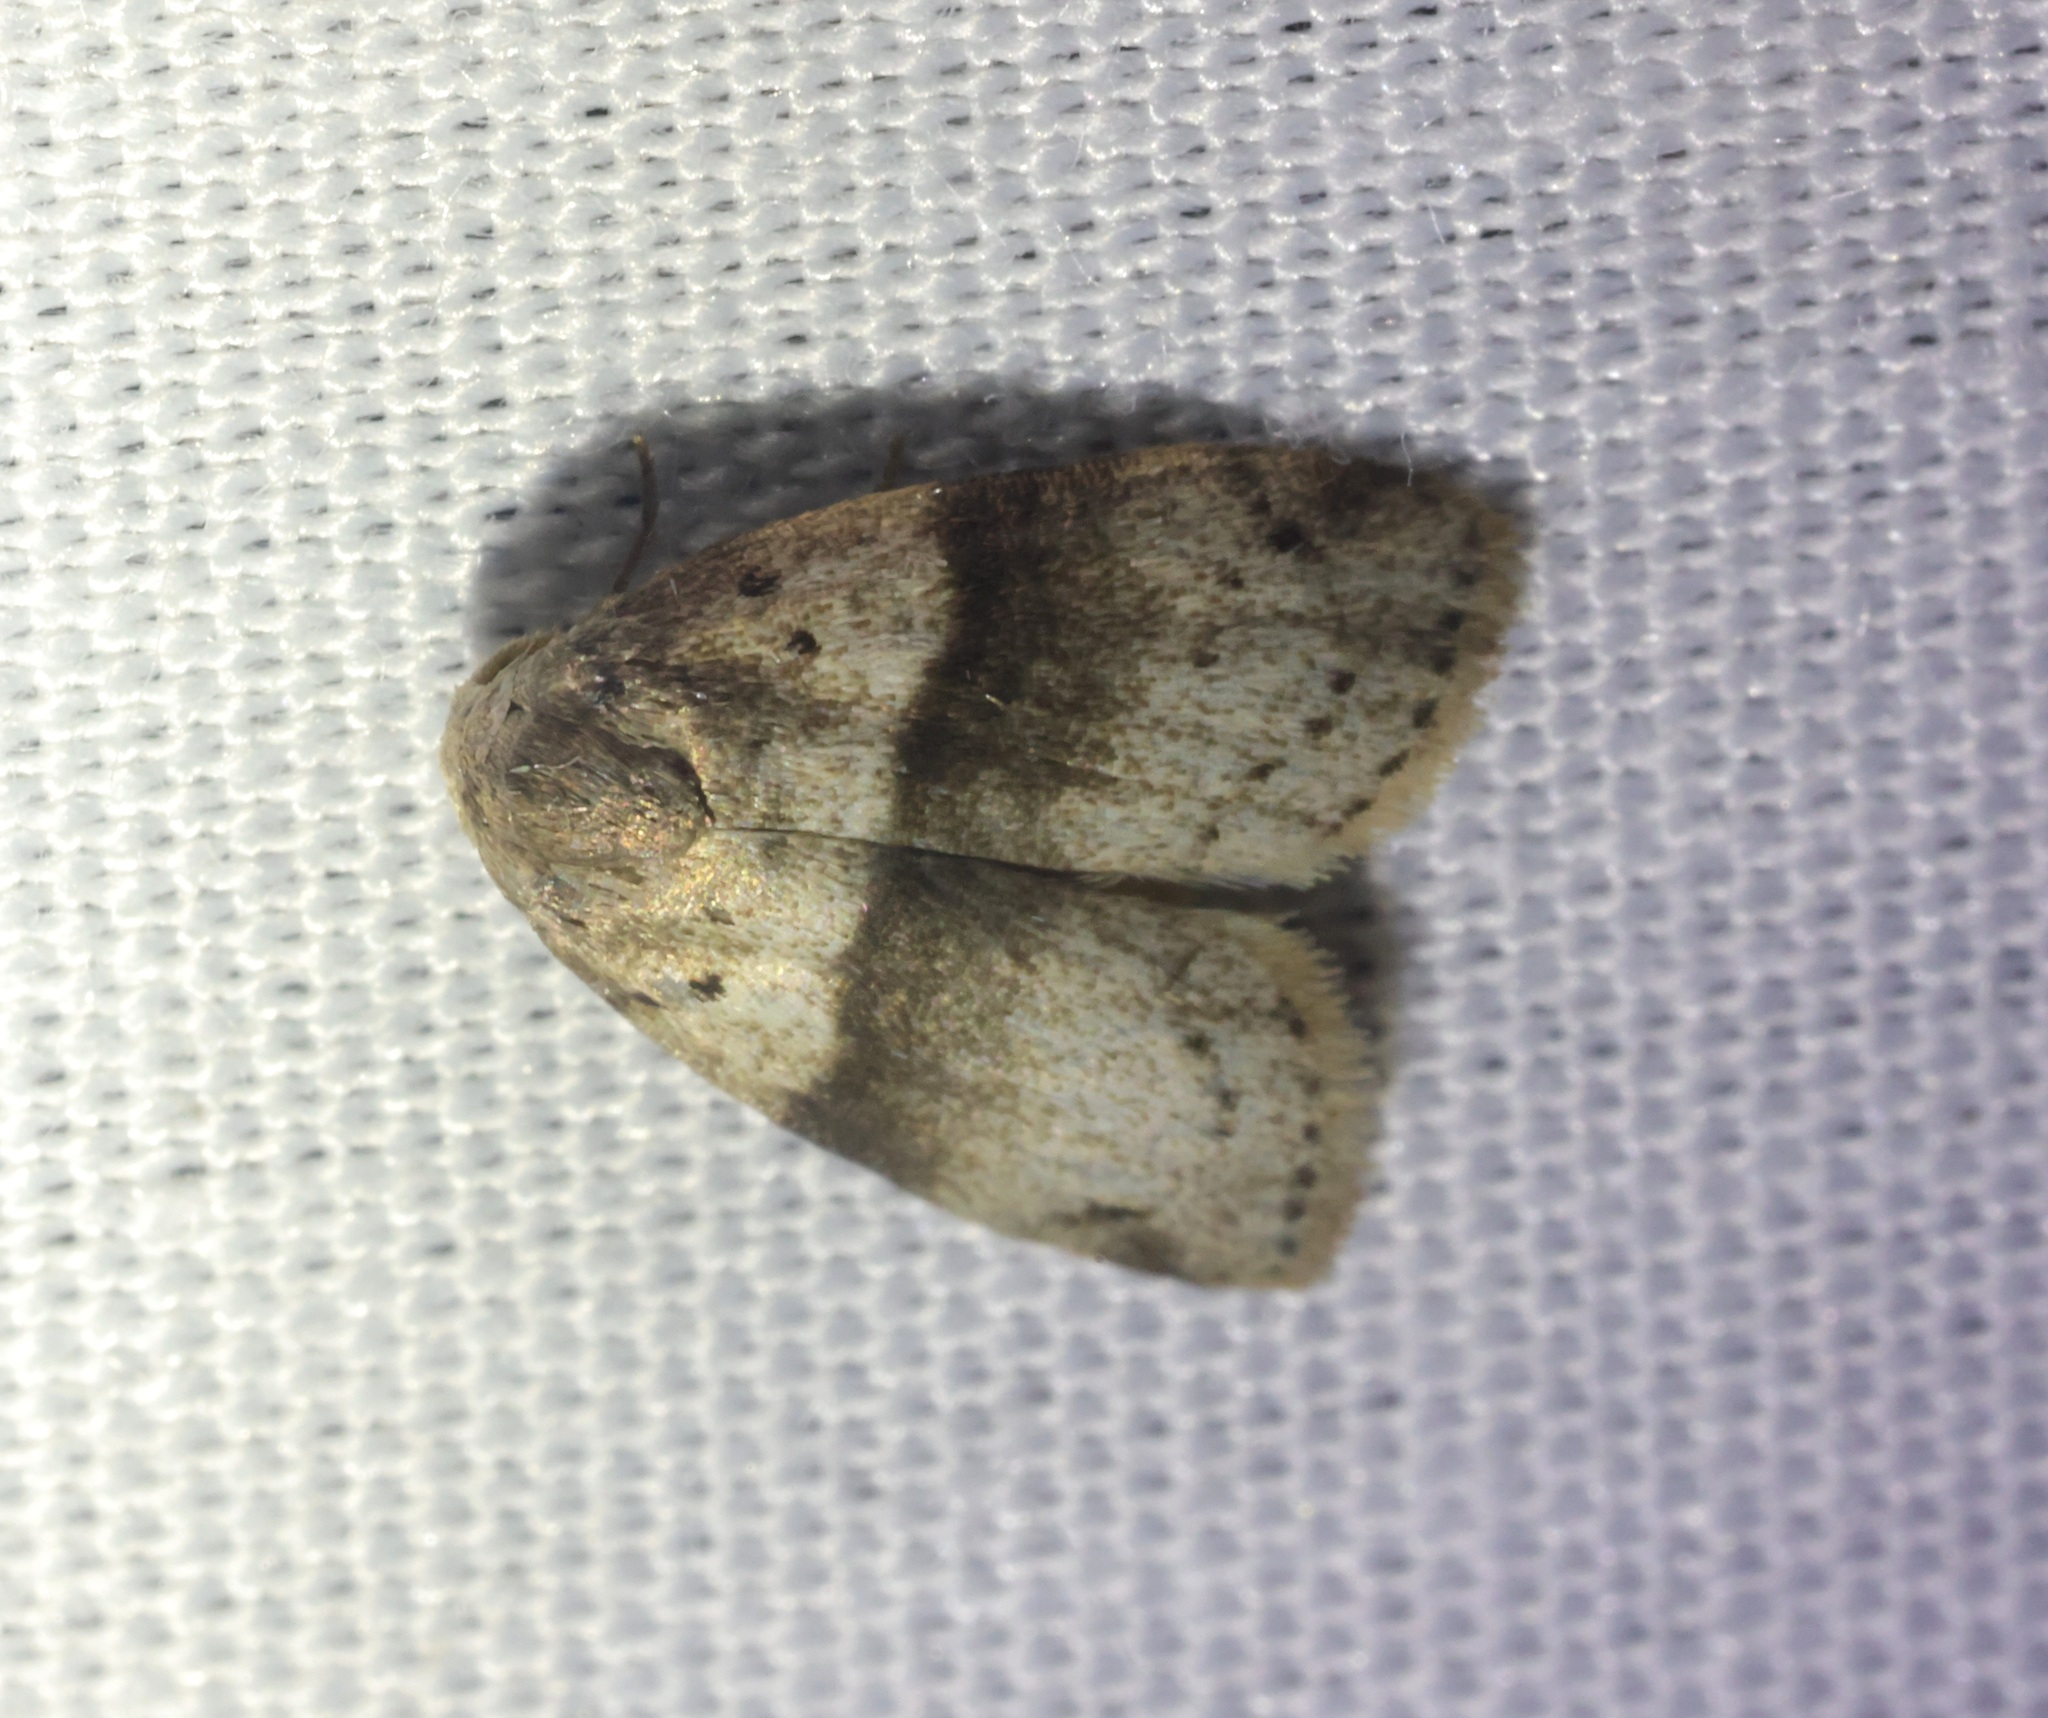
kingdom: Animalia
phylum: Arthropoda
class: Insecta
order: Lepidoptera
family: Erebidae
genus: Stictane
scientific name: Stictane rectilinea
